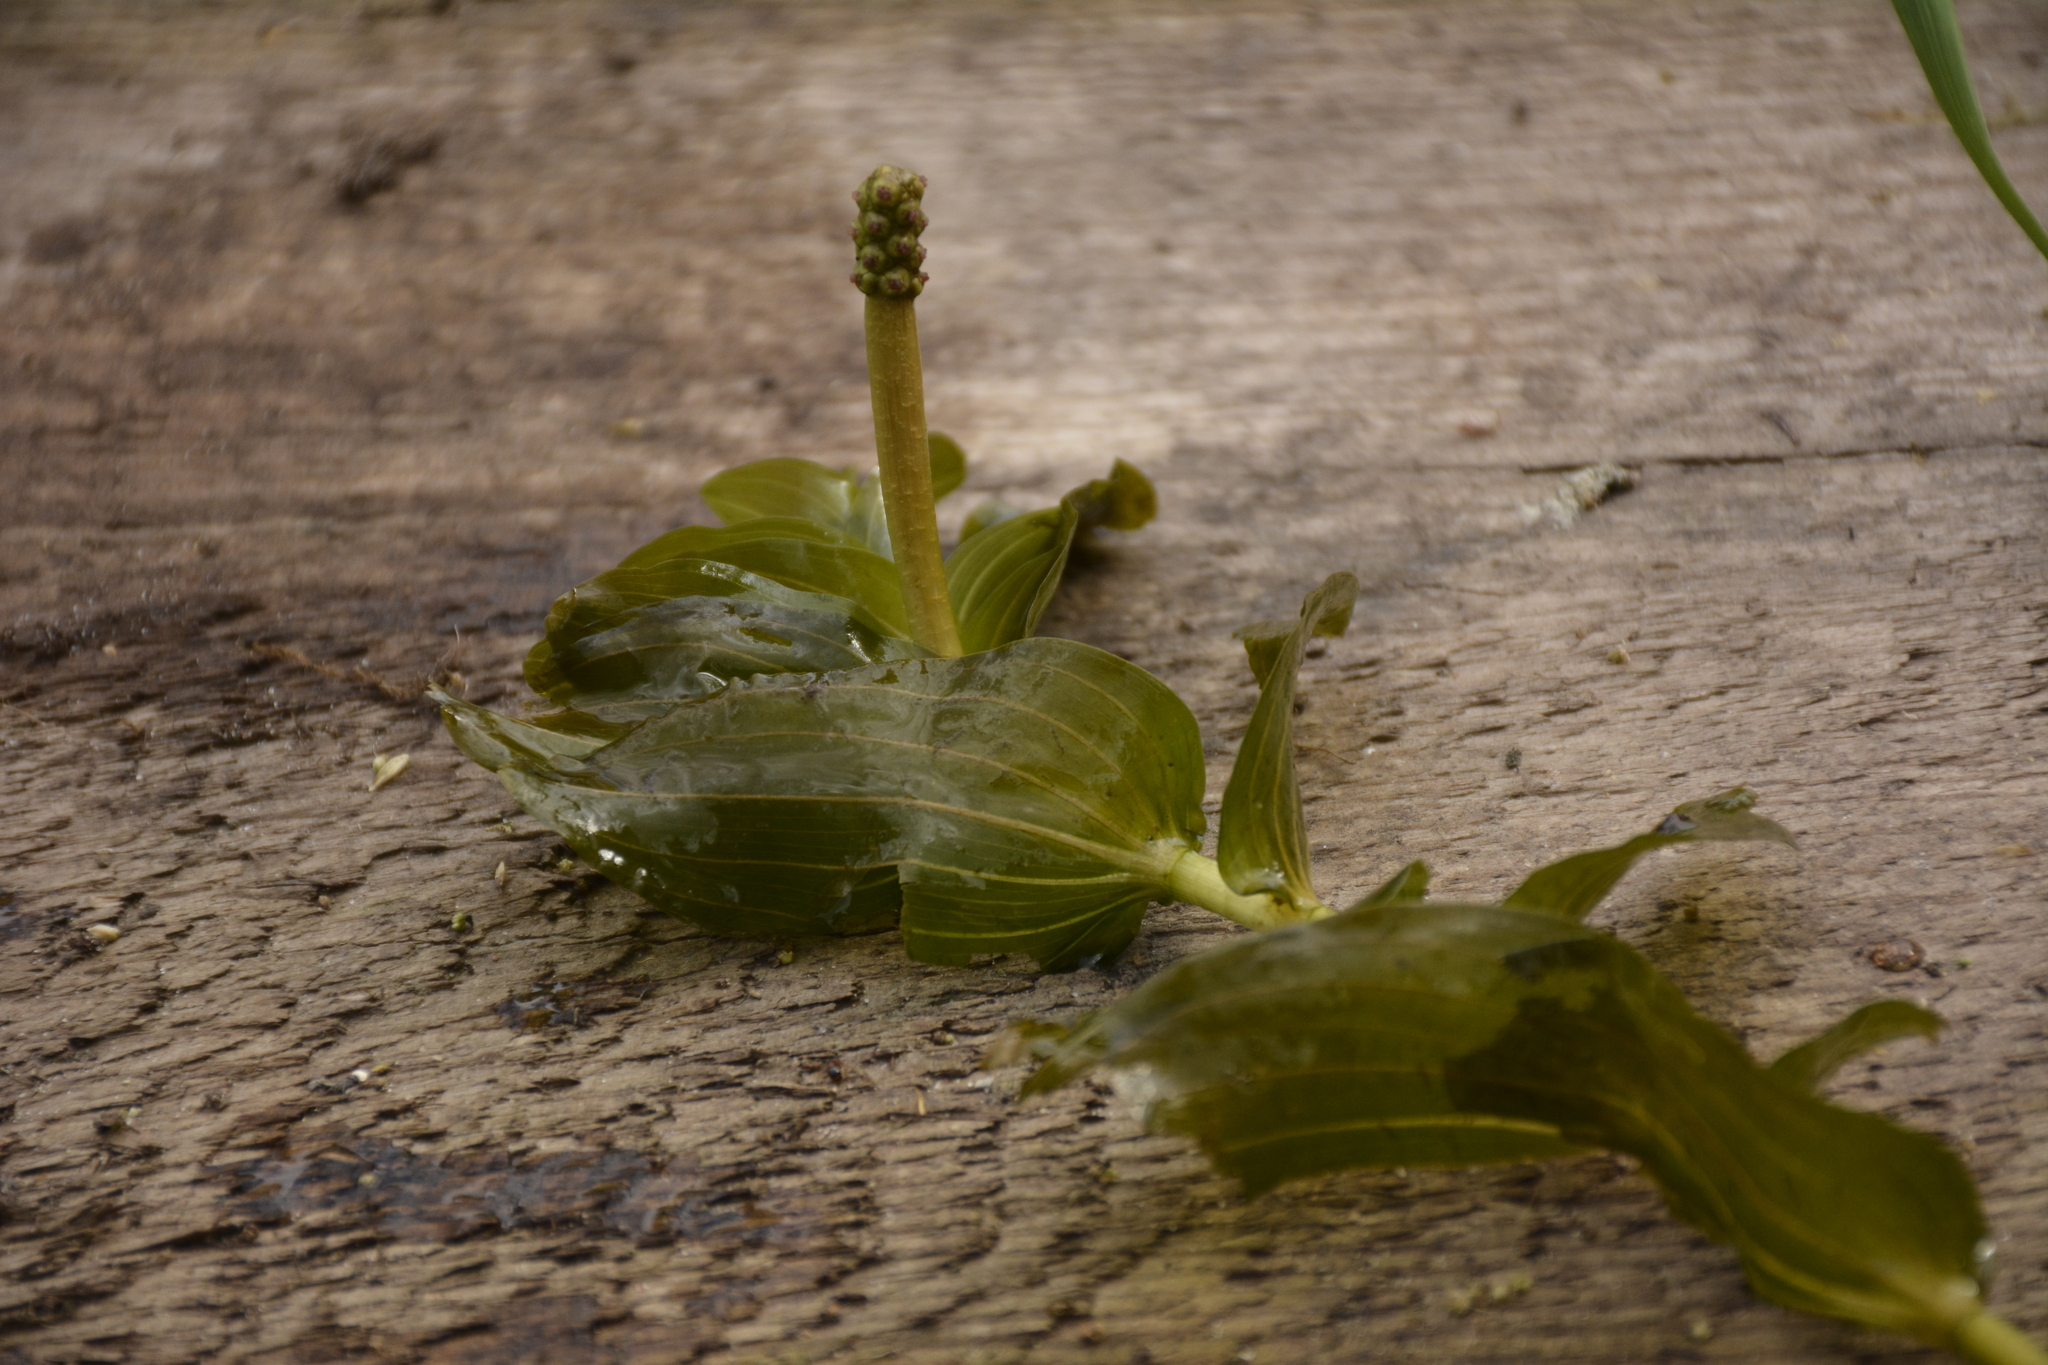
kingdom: Plantae
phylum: Tracheophyta
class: Liliopsida
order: Alismatales
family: Potamogetonaceae
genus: Potamogeton
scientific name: Potamogeton perfoliatus
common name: Perfoliate pondweed
